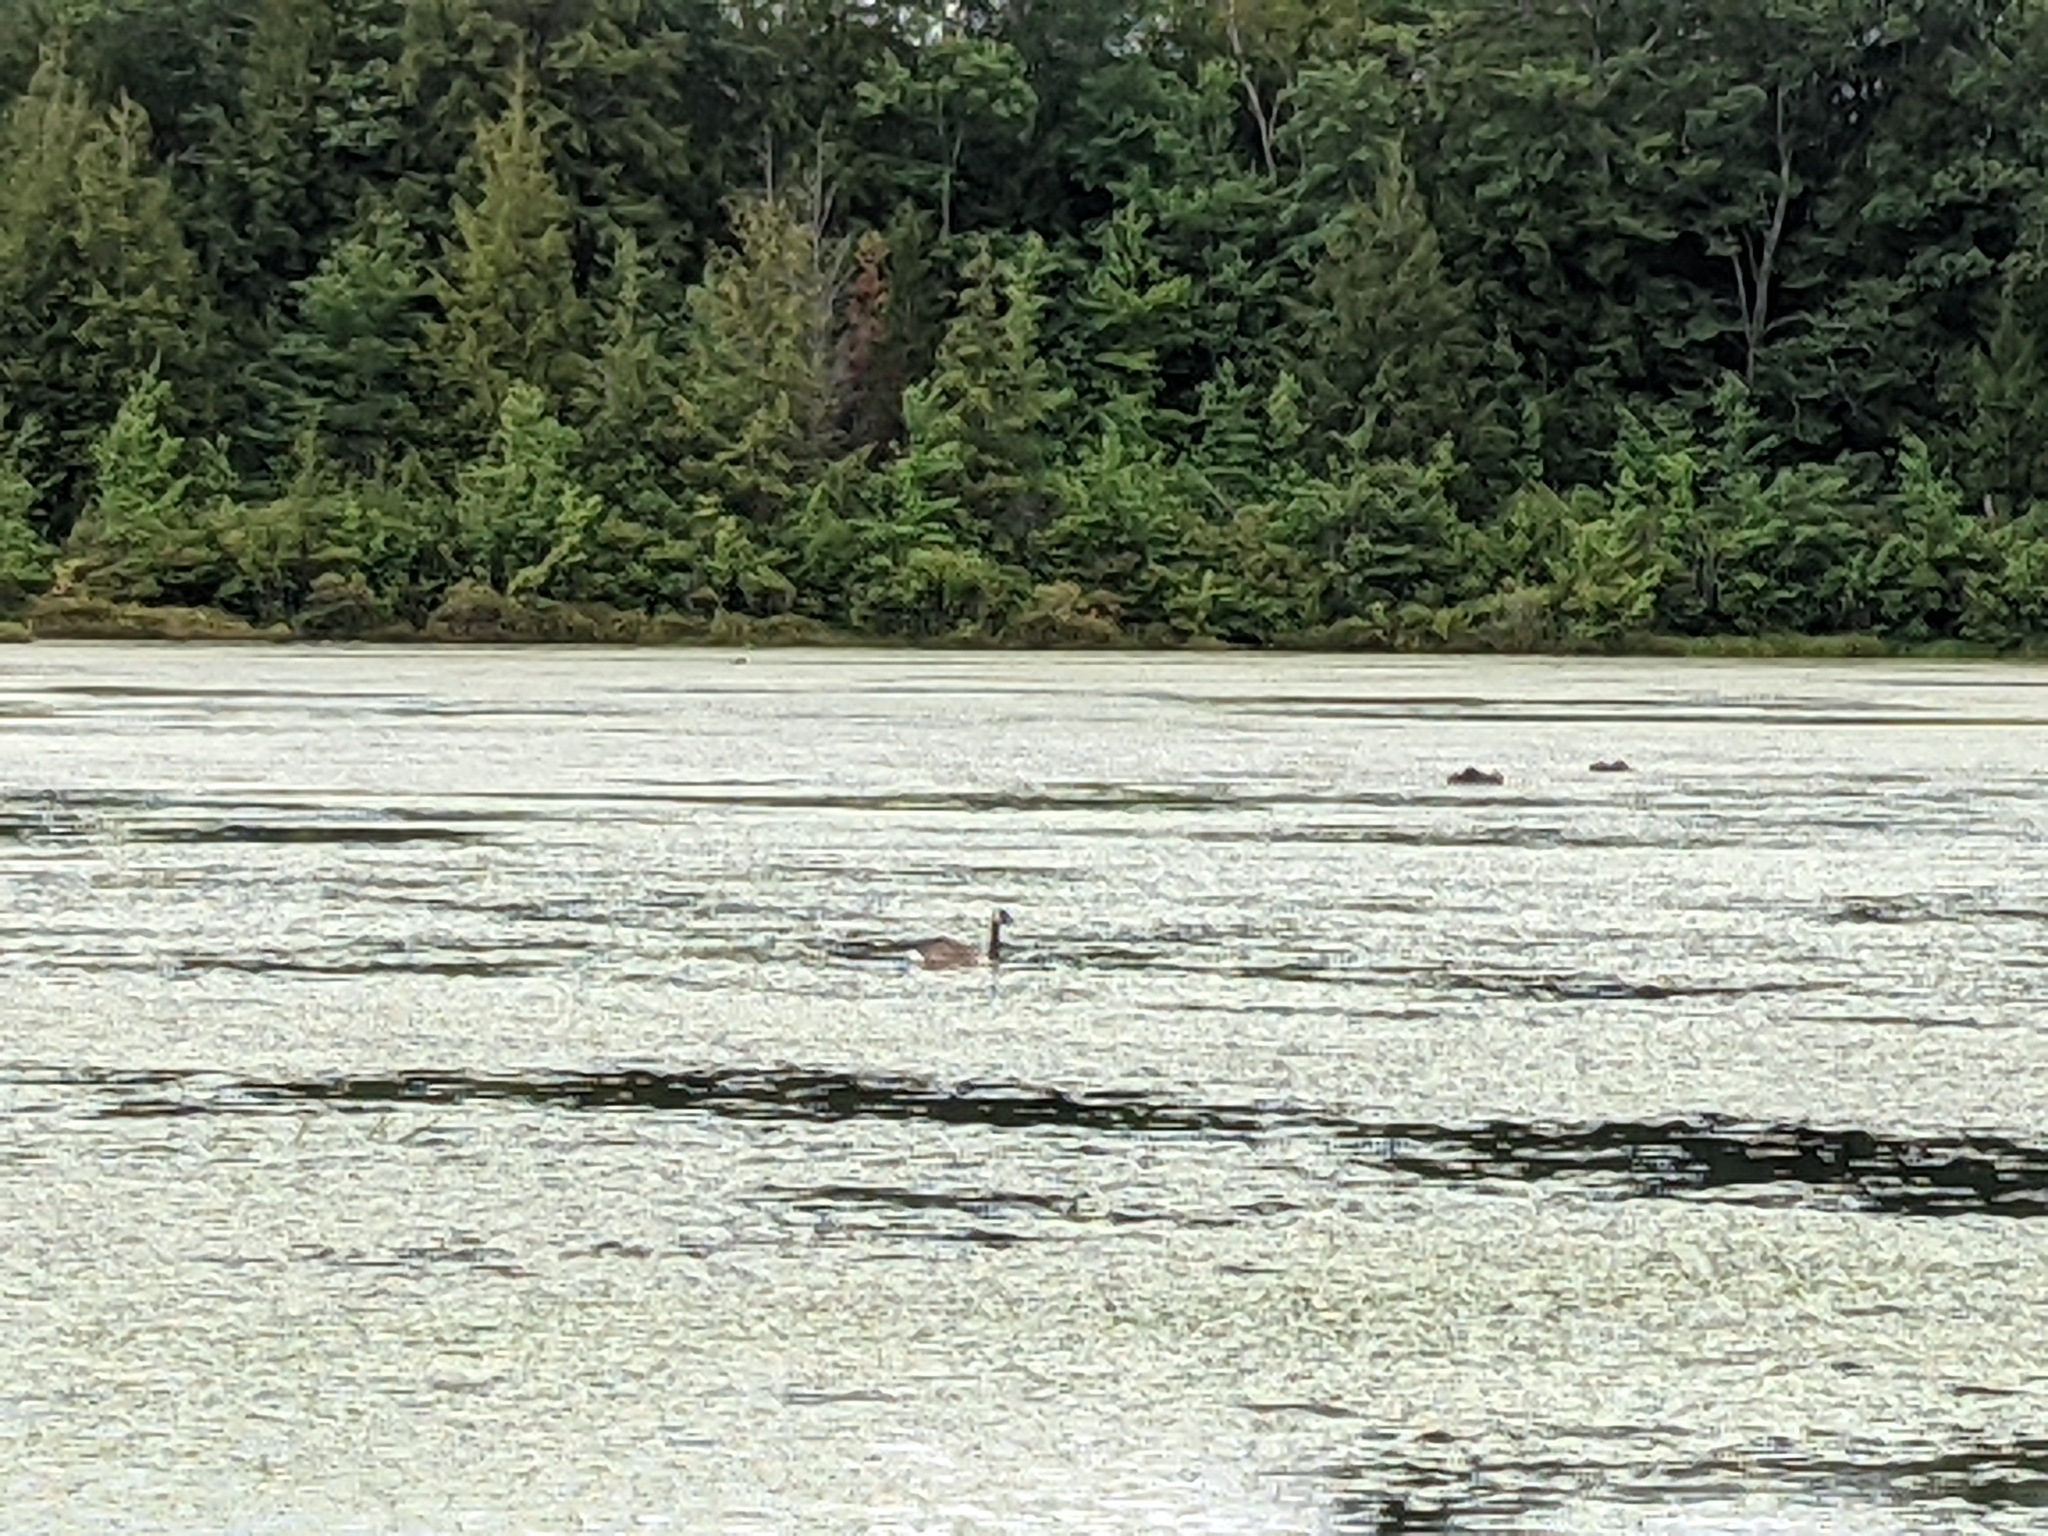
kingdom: Animalia
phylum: Chordata
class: Aves
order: Anseriformes
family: Anatidae
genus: Branta
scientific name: Branta canadensis
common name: Canada goose
